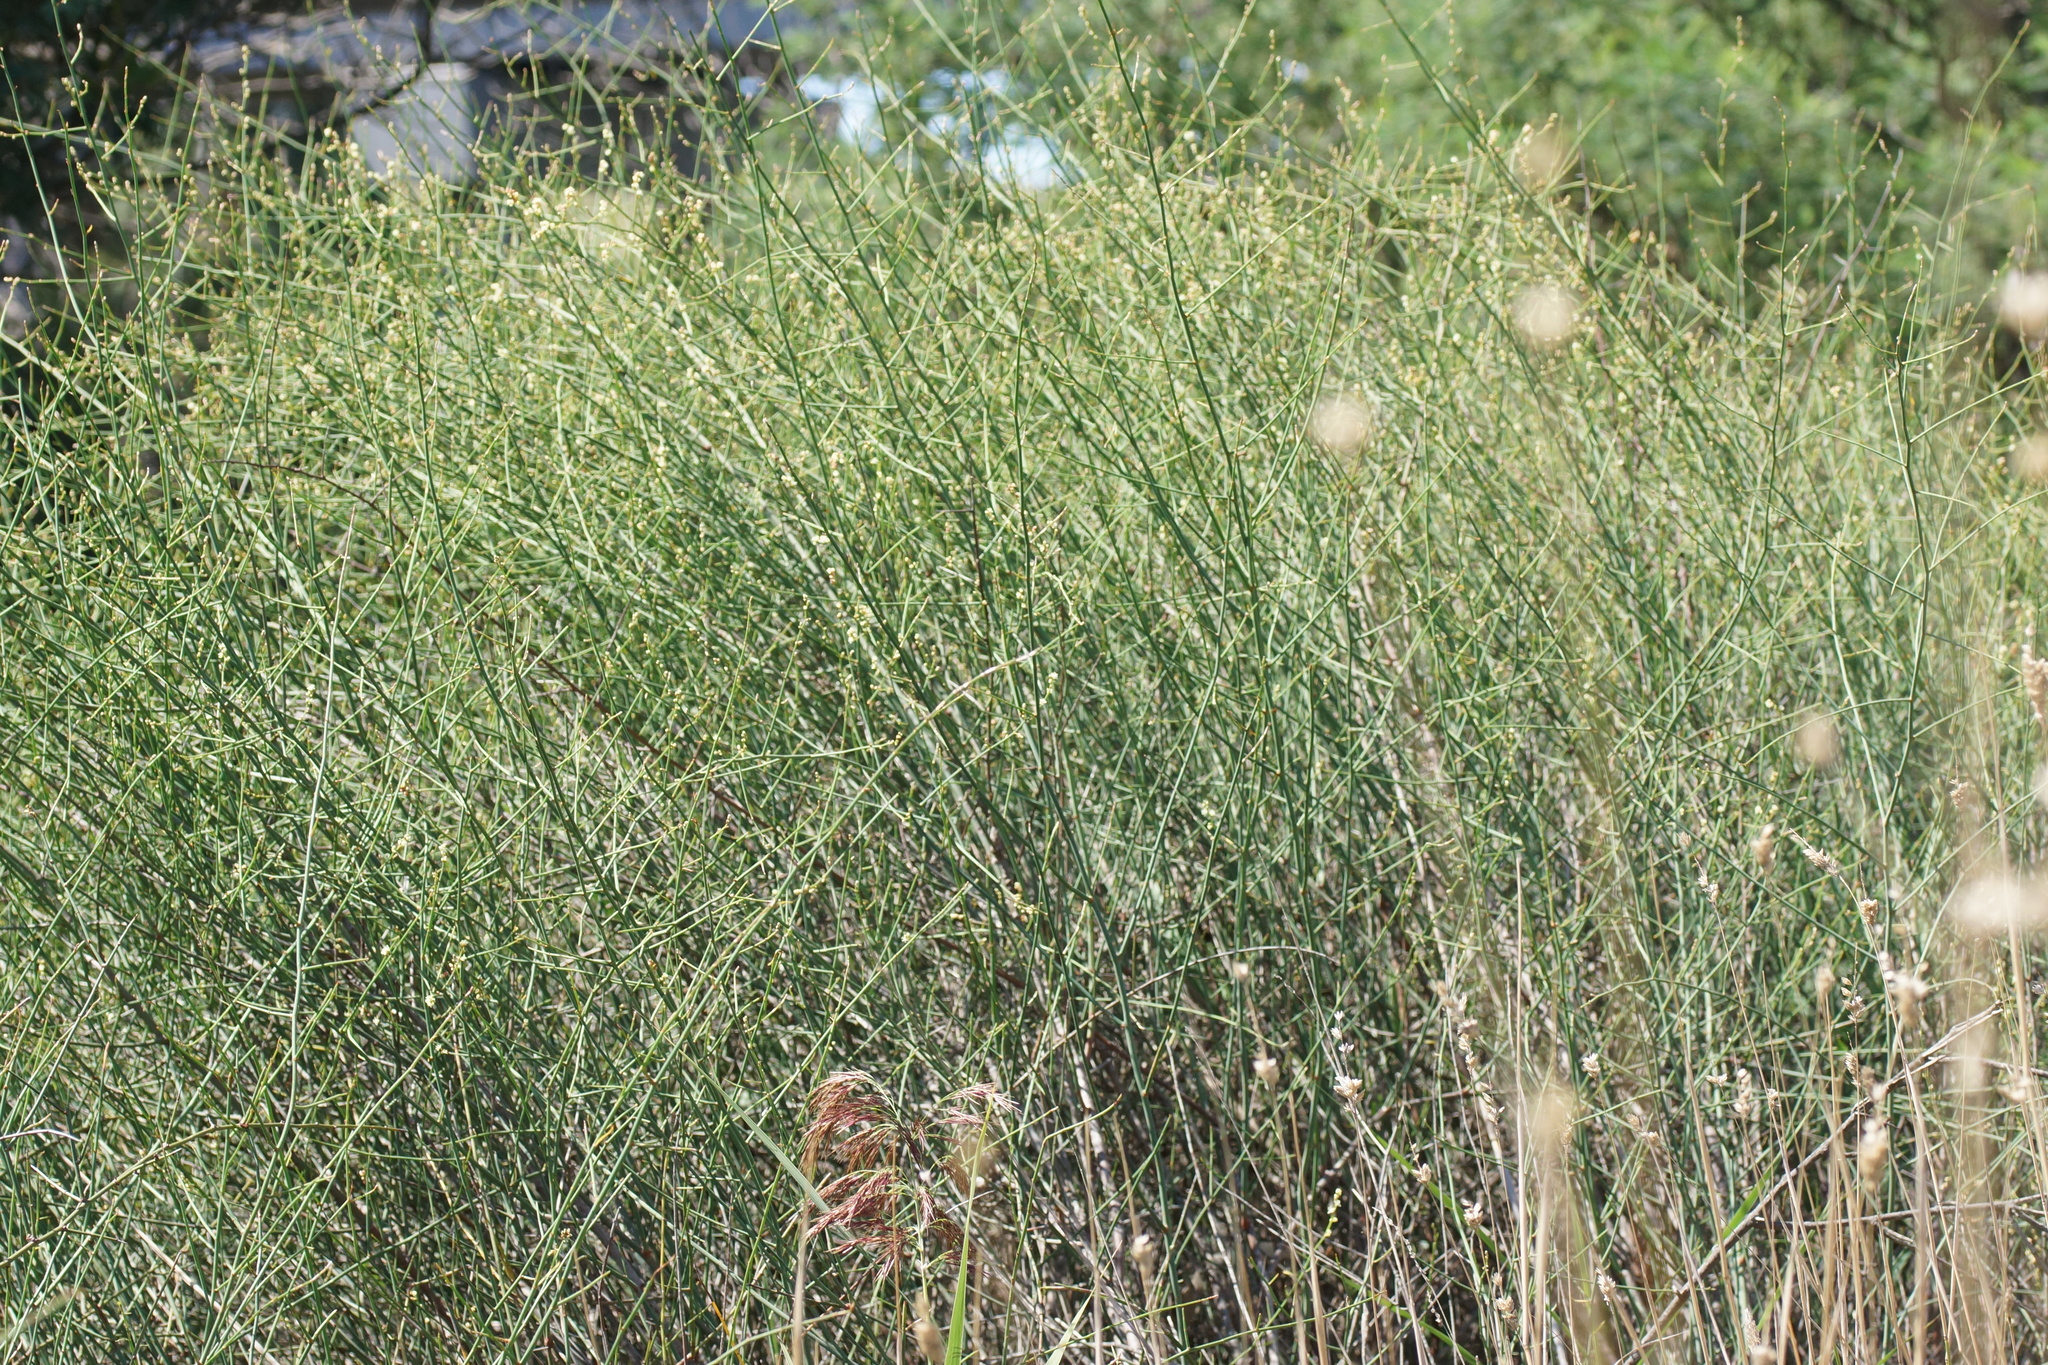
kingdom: Plantae
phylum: Tracheophyta
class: Magnoliopsida
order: Caryophyllales
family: Polygonaceae
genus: Duma
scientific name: Duma florulenta
